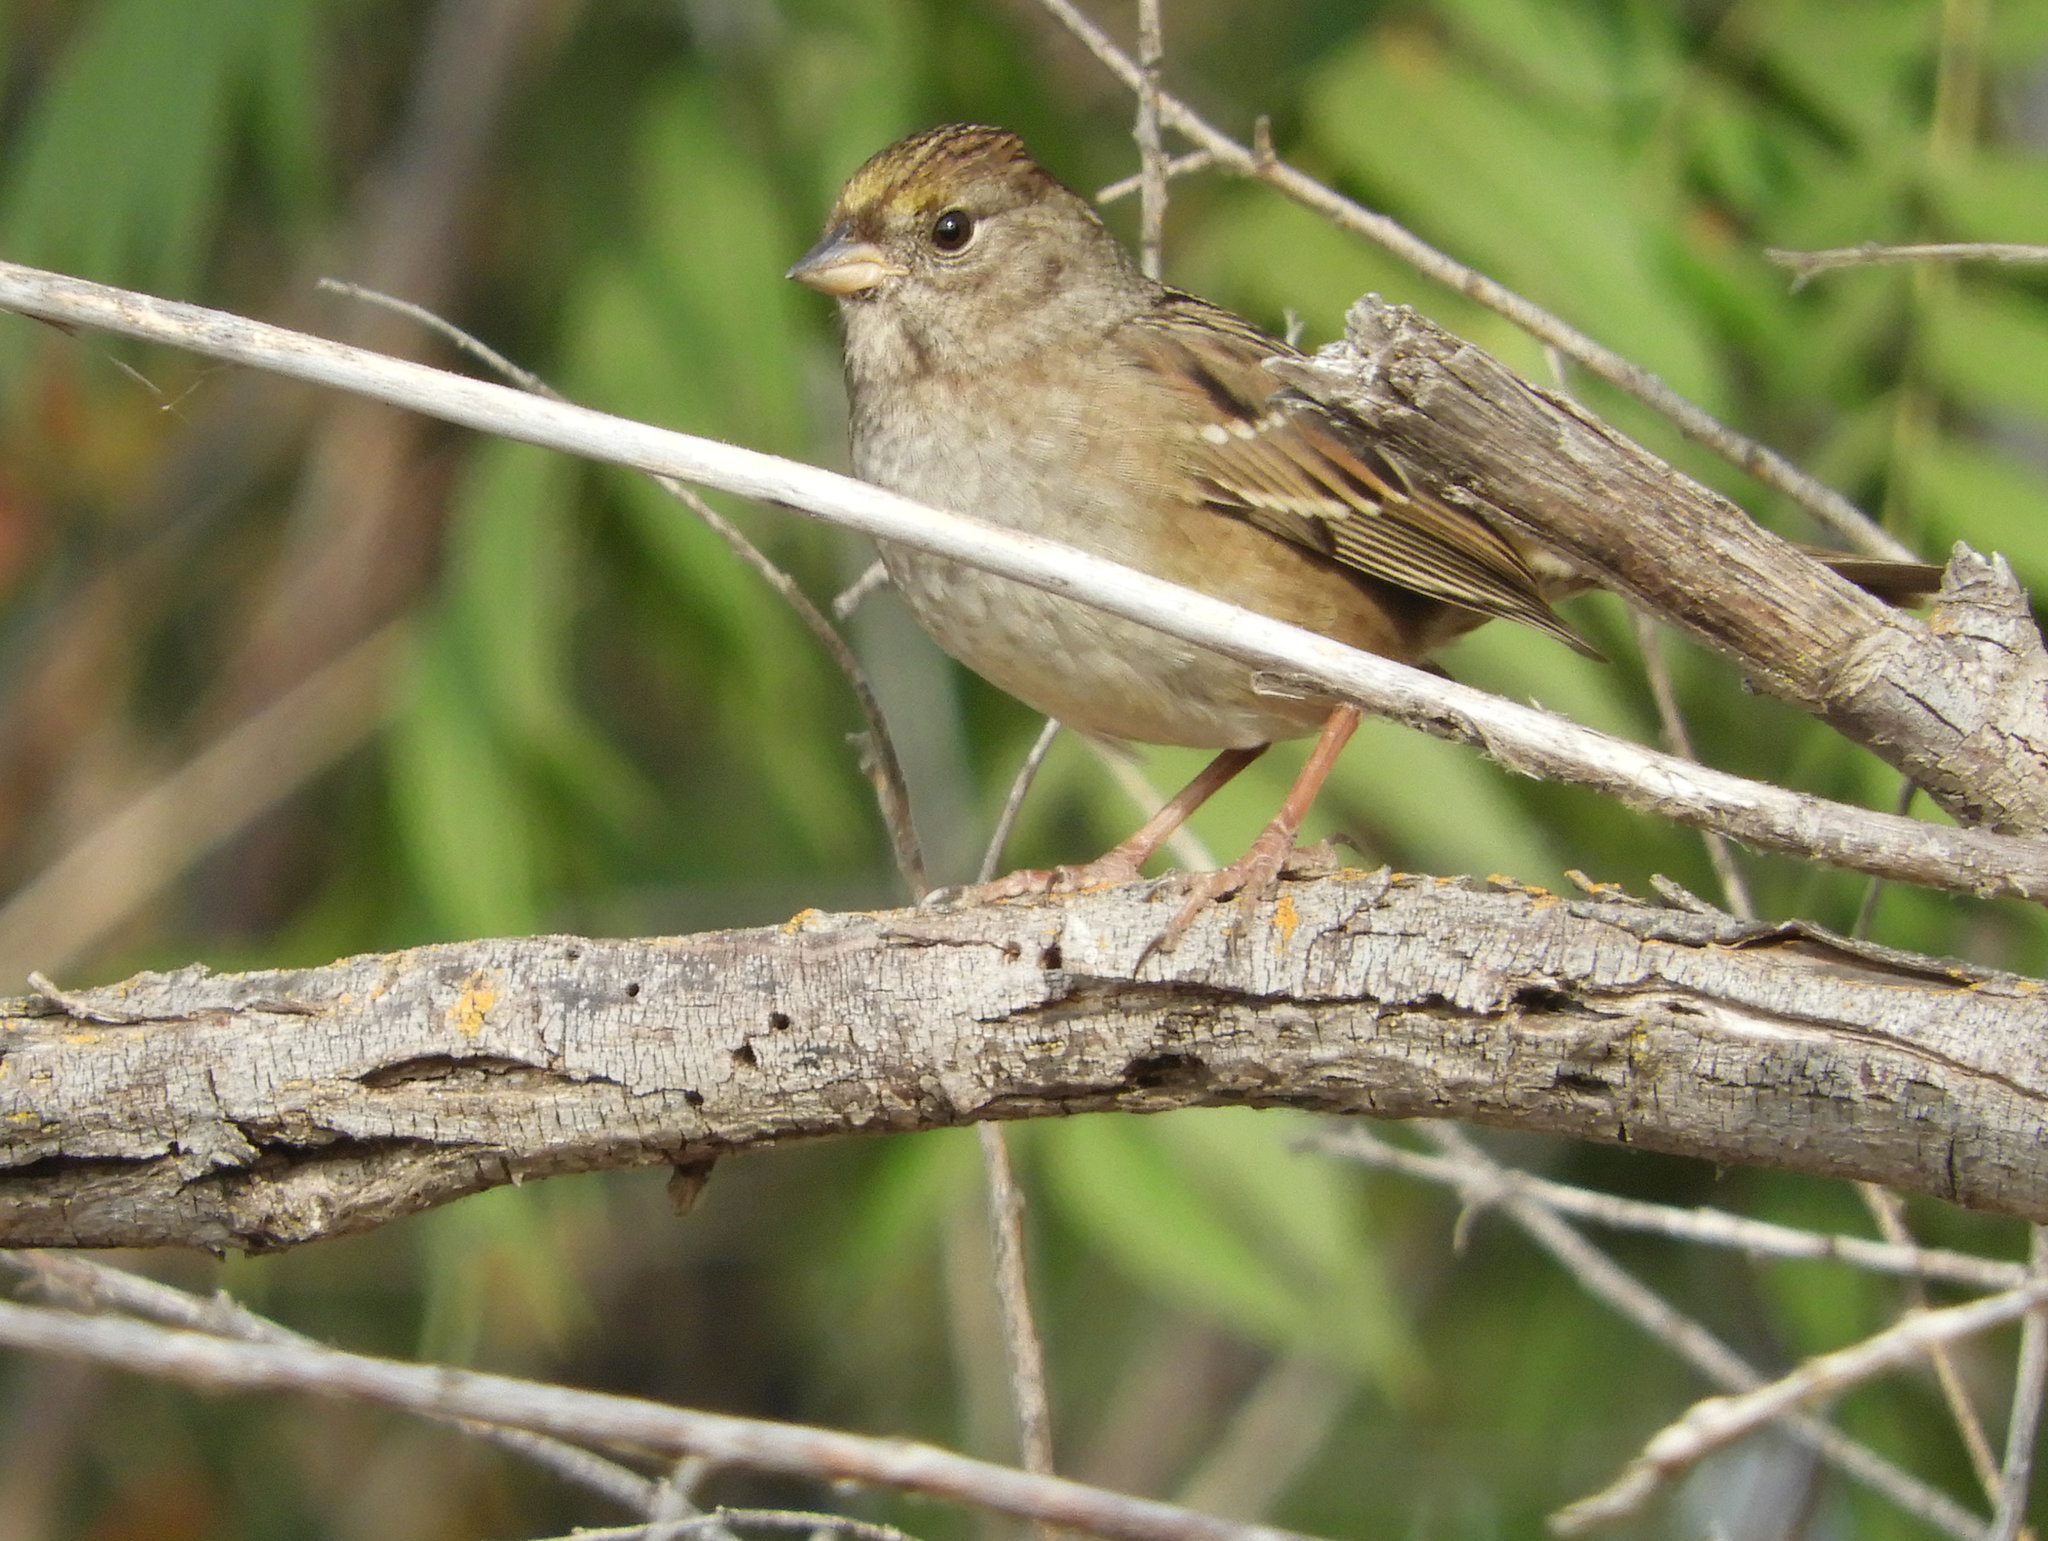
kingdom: Animalia
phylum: Chordata
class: Aves
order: Passeriformes
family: Passerellidae
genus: Zonotrichia
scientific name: Zonotrichia atricapilla
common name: Golden-crowned sparrow
